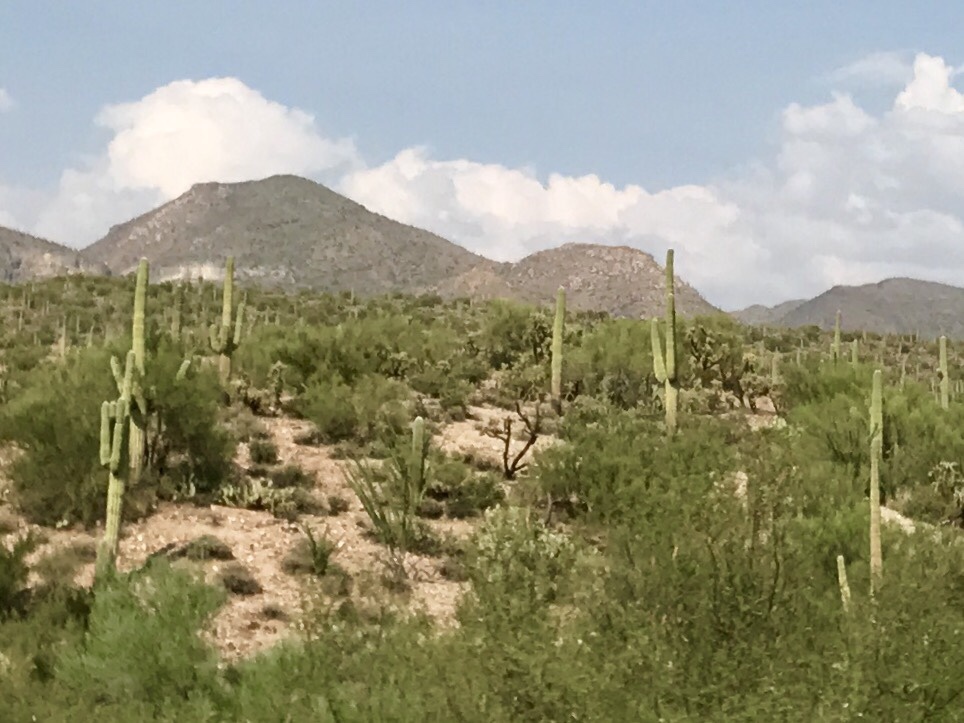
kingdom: Plantae
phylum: Tracheophyta
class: Magnoliopsida
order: Caryophyllales
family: Cactaceae
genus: Carnegiea
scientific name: Carnegiea gigantea
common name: Saguaro
